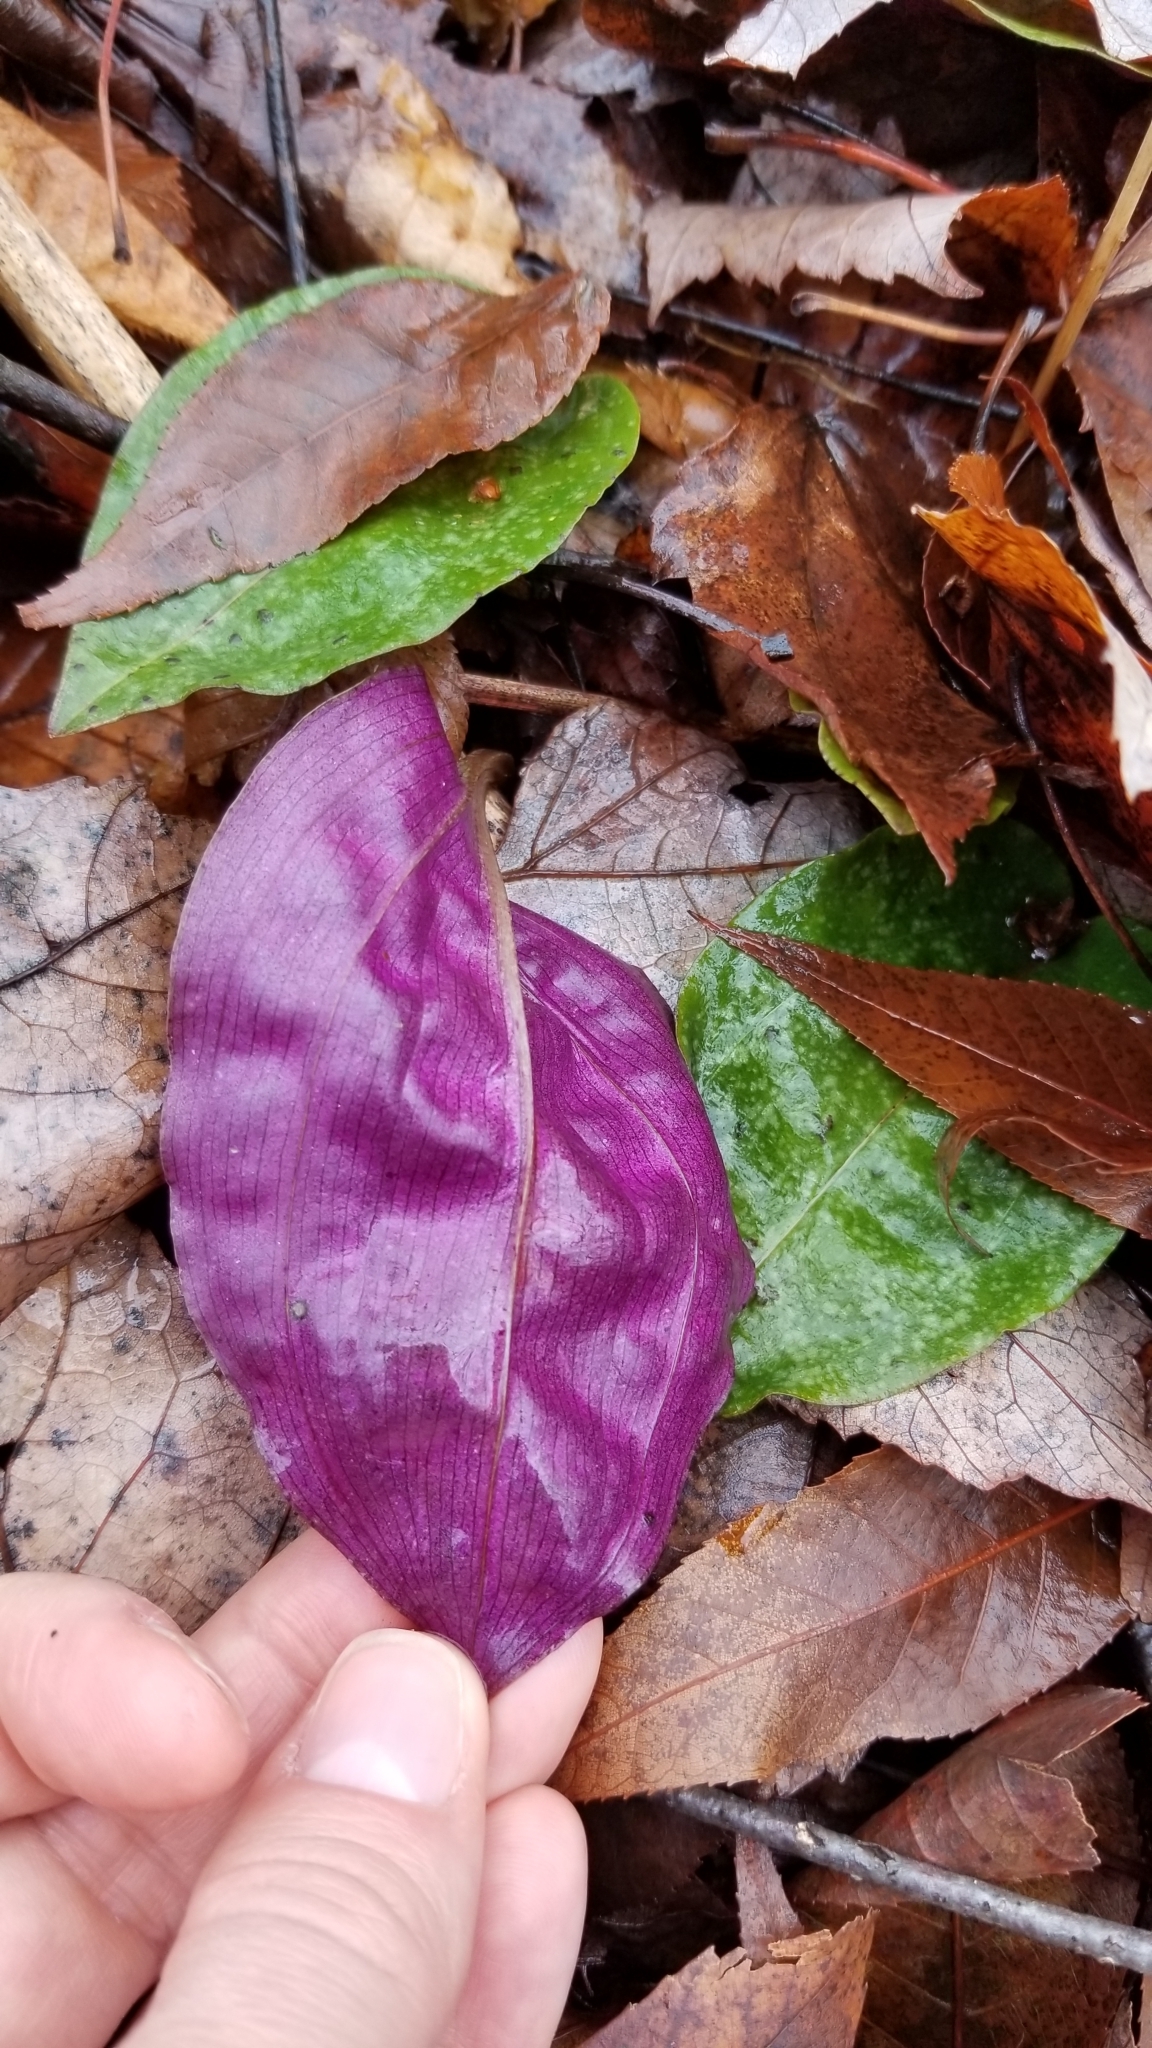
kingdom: Plantae
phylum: Tracheophyta
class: Liliopsida
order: Asparagales
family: Orchidaceae
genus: Tipularia
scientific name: Tipularia discolor
